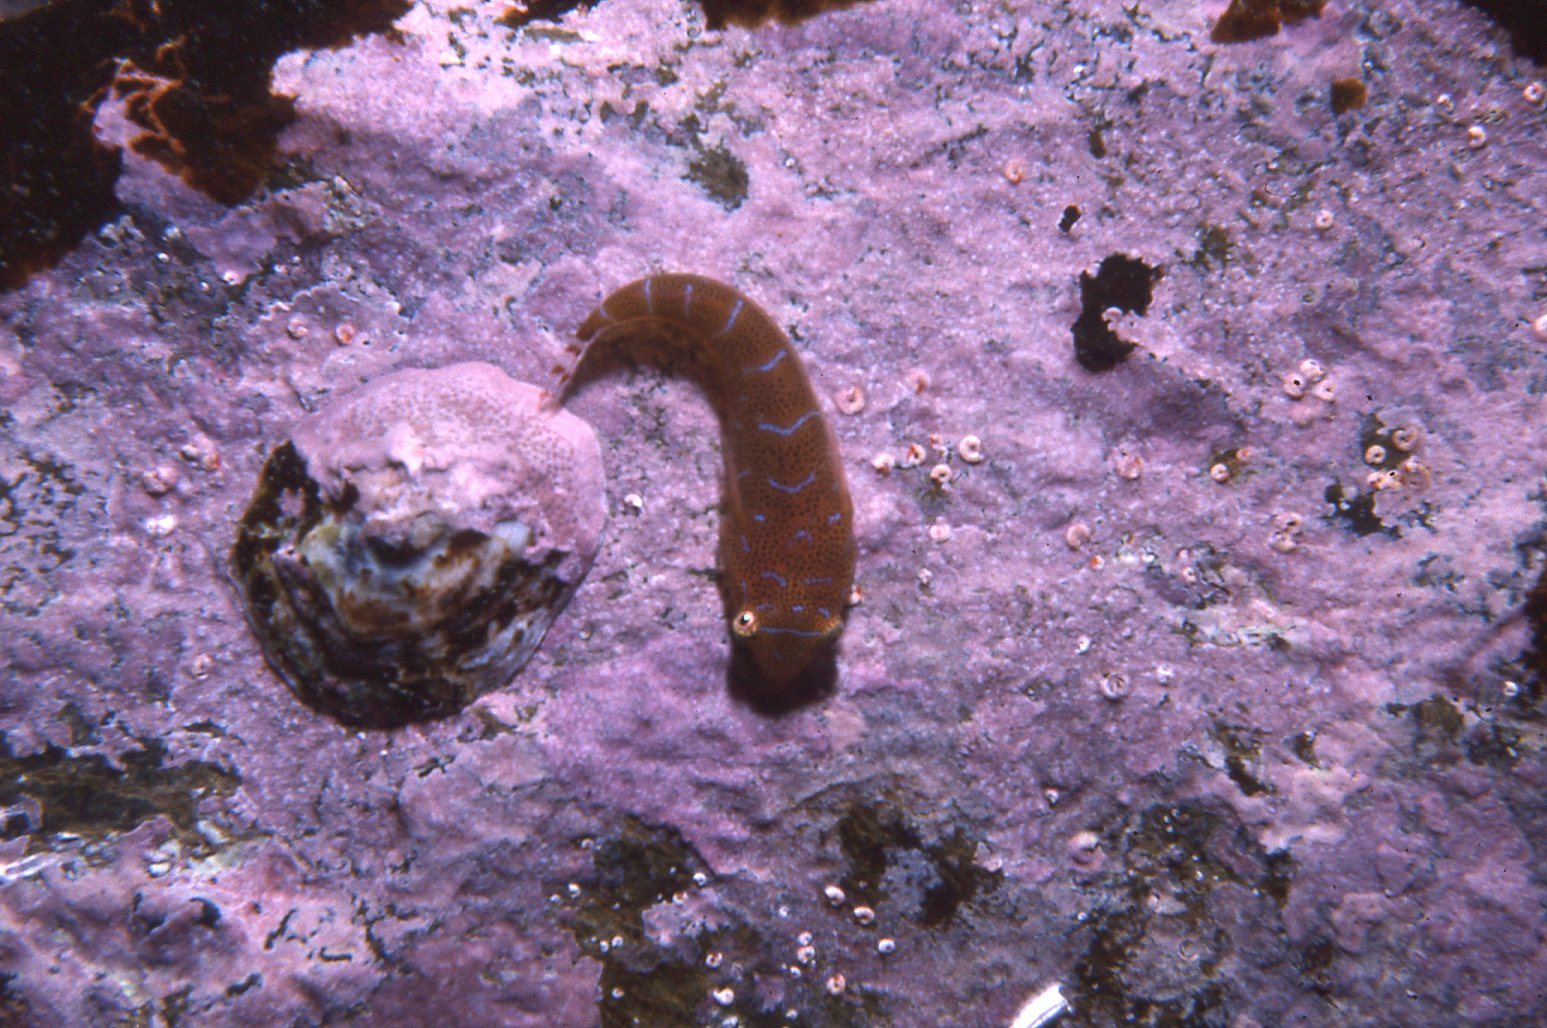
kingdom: Animalia
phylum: Chordata
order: Gobiesociformes
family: Gobiesocidae
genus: Cochleoceps
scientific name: Cochleoceps orientalis
